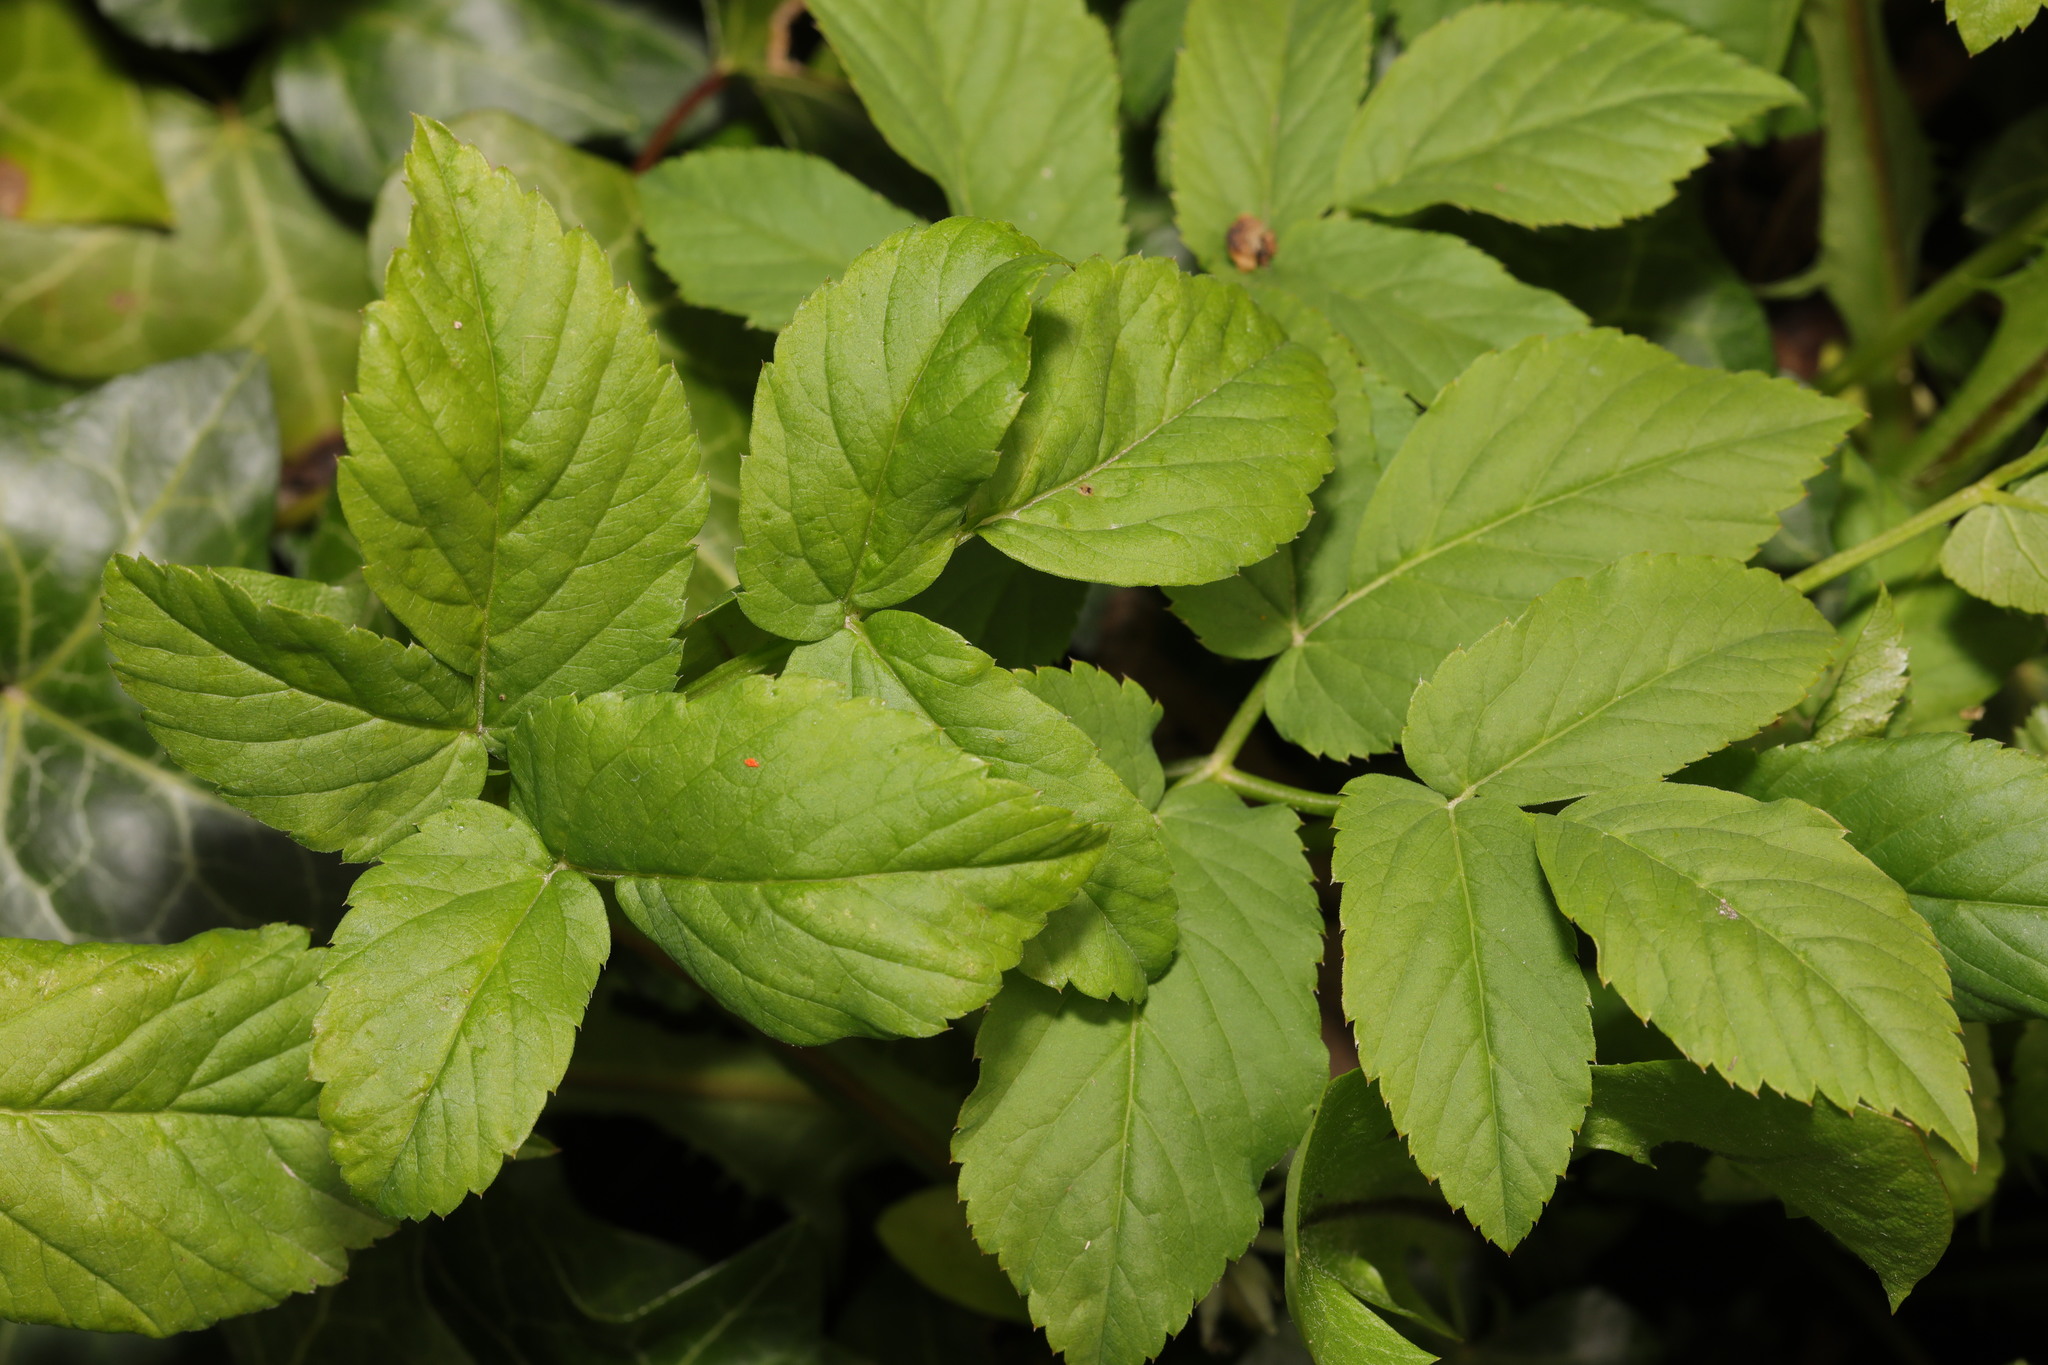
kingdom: Plantae
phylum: Tracheophyta
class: Magnoliopsida
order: Apiales
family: Apiaceae
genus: Aegopodium
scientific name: Aegopodium podagraria
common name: Ground-elder
